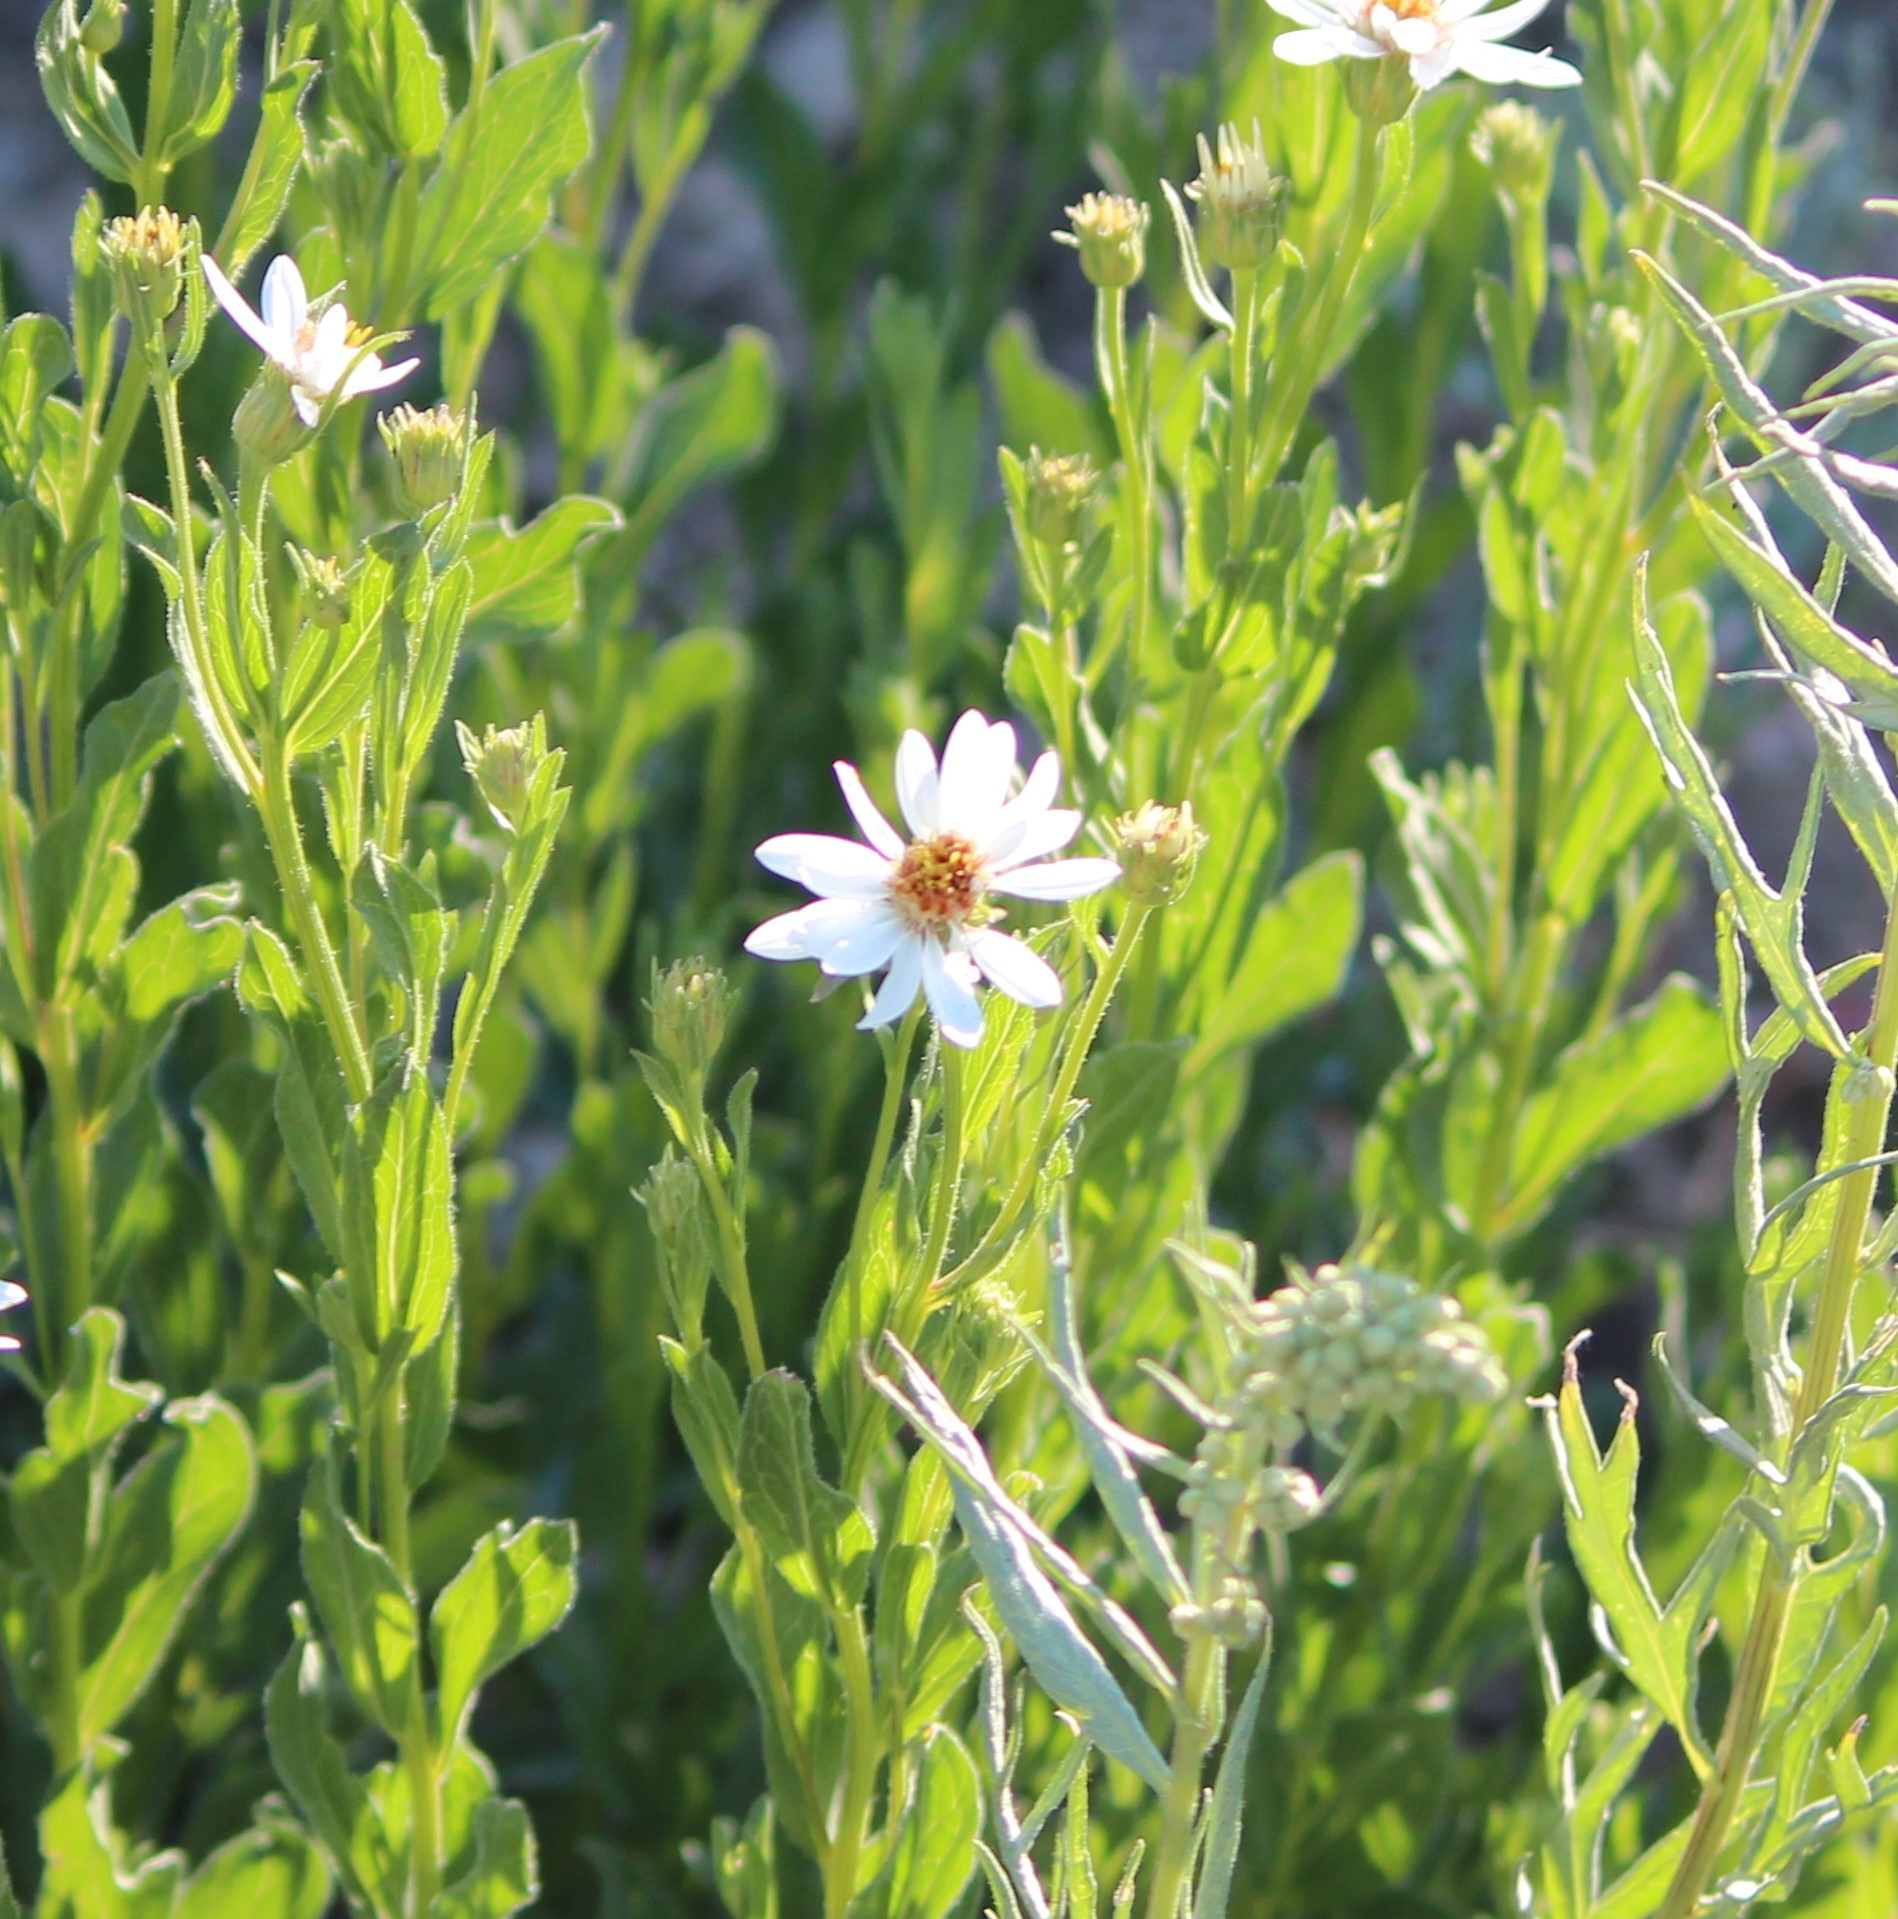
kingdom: Plantae
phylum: Tracheophyta
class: Magnoliopsida
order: Asterales
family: Asteraceae
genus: Eucephalus
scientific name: Eucephalus paucicapitatus
